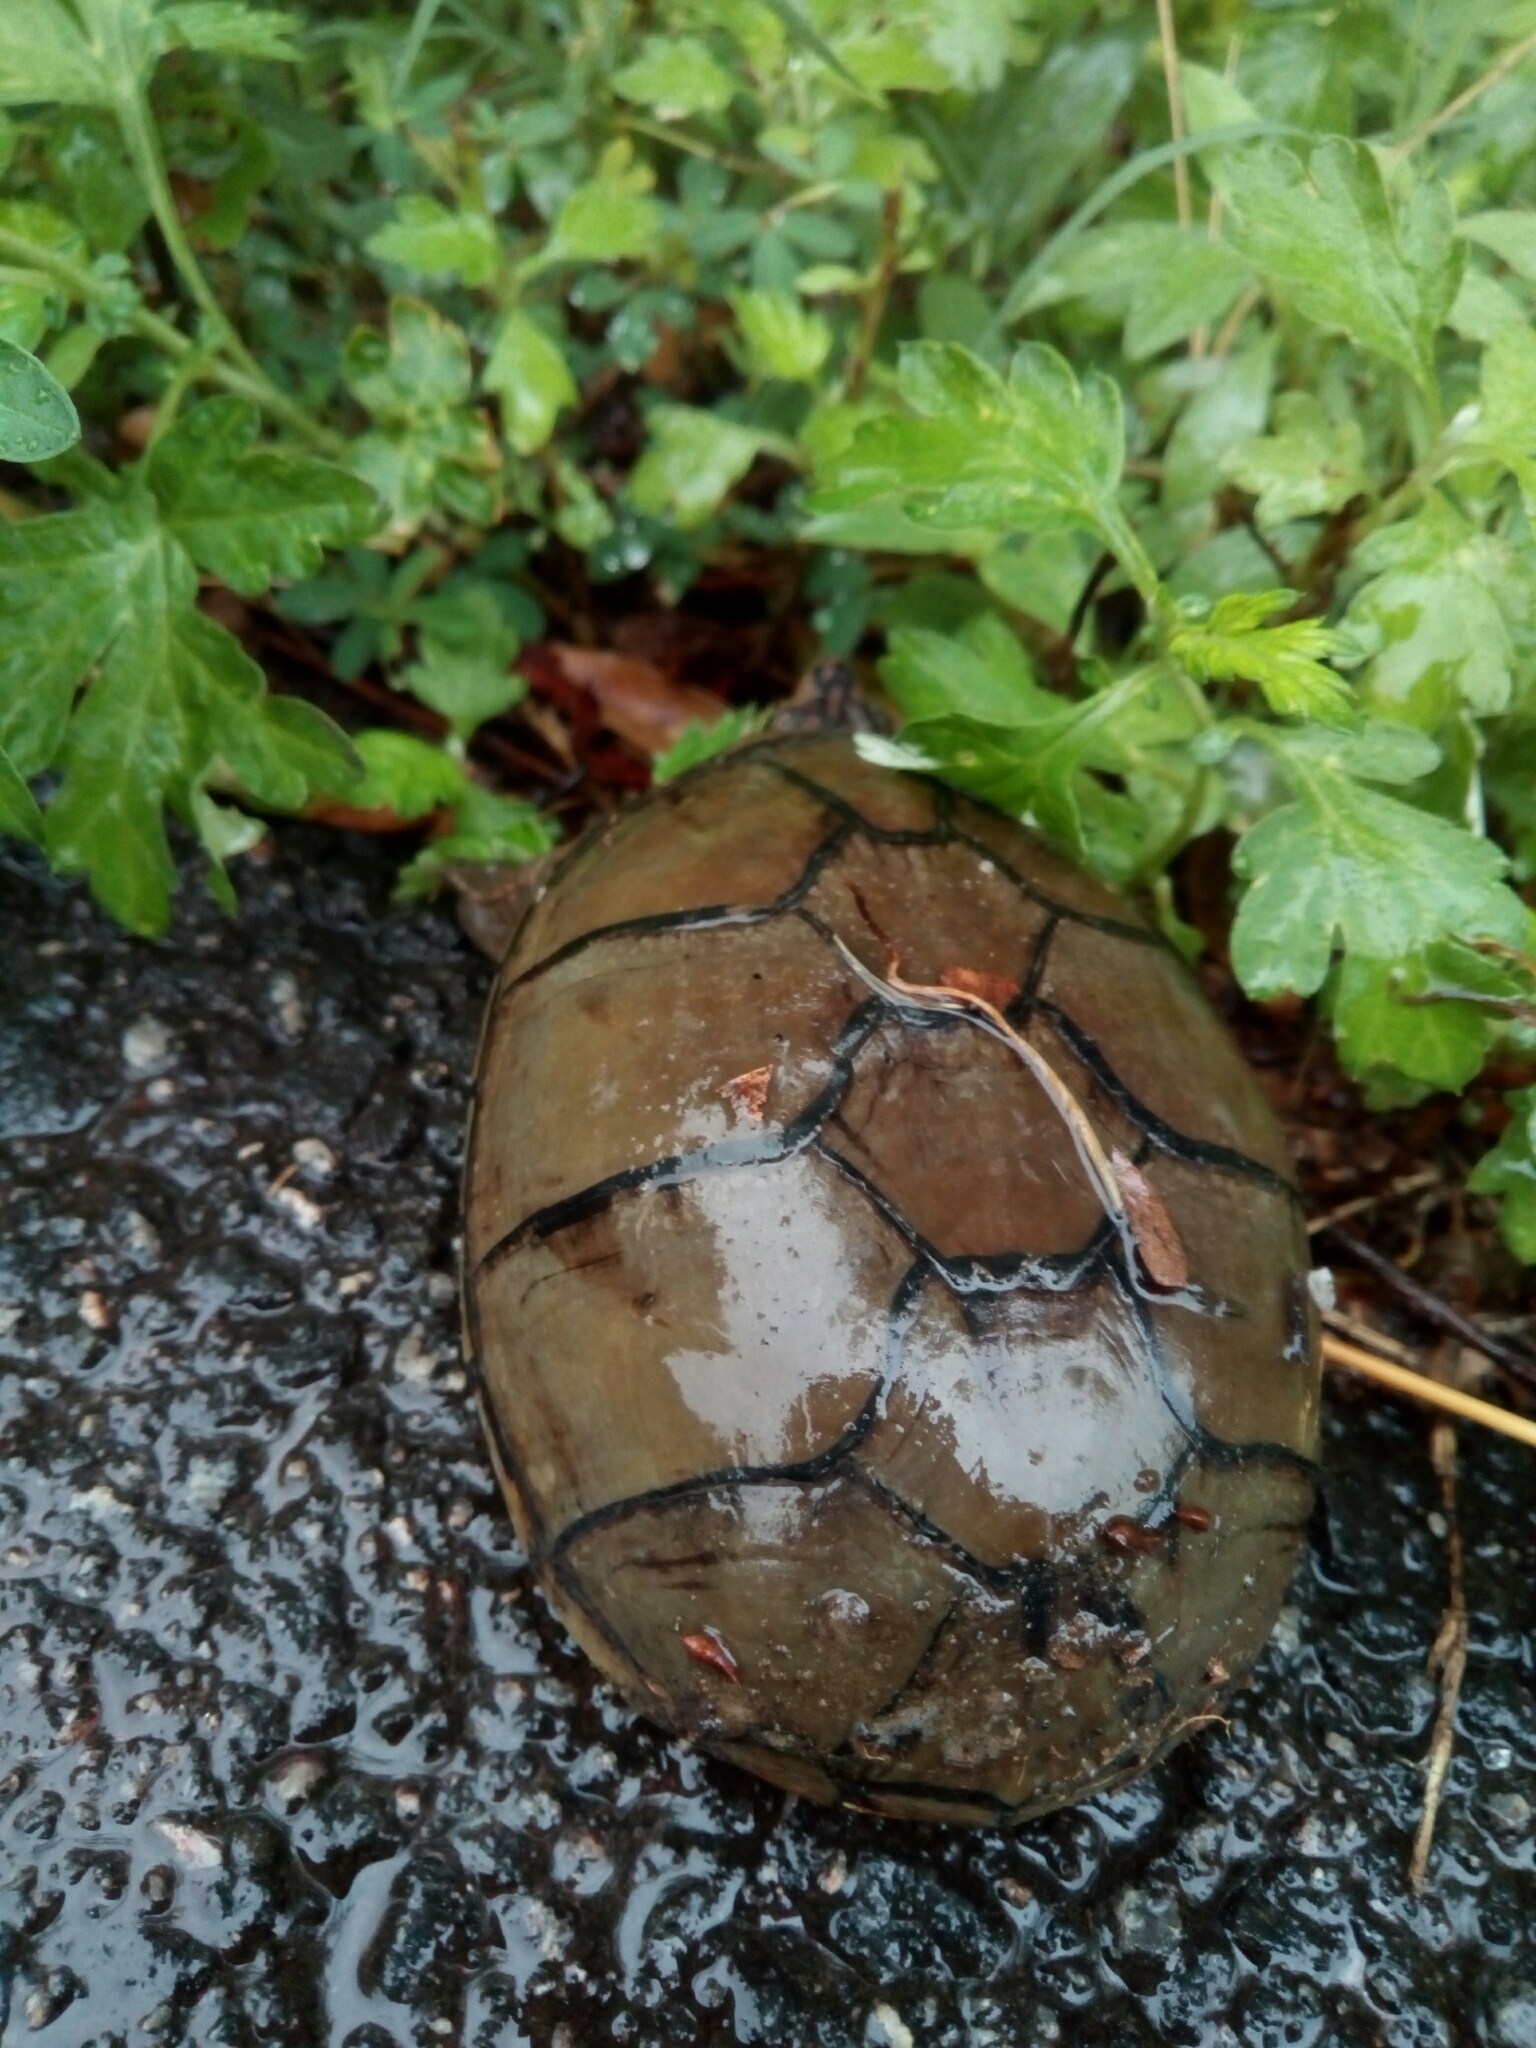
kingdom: Animalia
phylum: Chordata
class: Testudines
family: Kinosternidae
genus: Kinosternon
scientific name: Kinosternon subrubrum
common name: Eastern mud turtle
